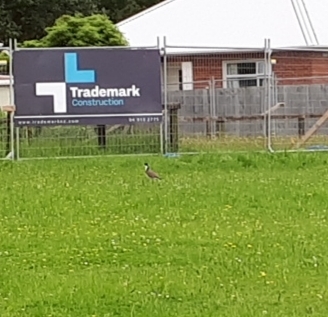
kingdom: Animalia
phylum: Chordata
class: Aves
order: Charadriiformes
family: Charadriidae
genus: Vanellus
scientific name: Vanellus miles
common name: Masked lapwing
